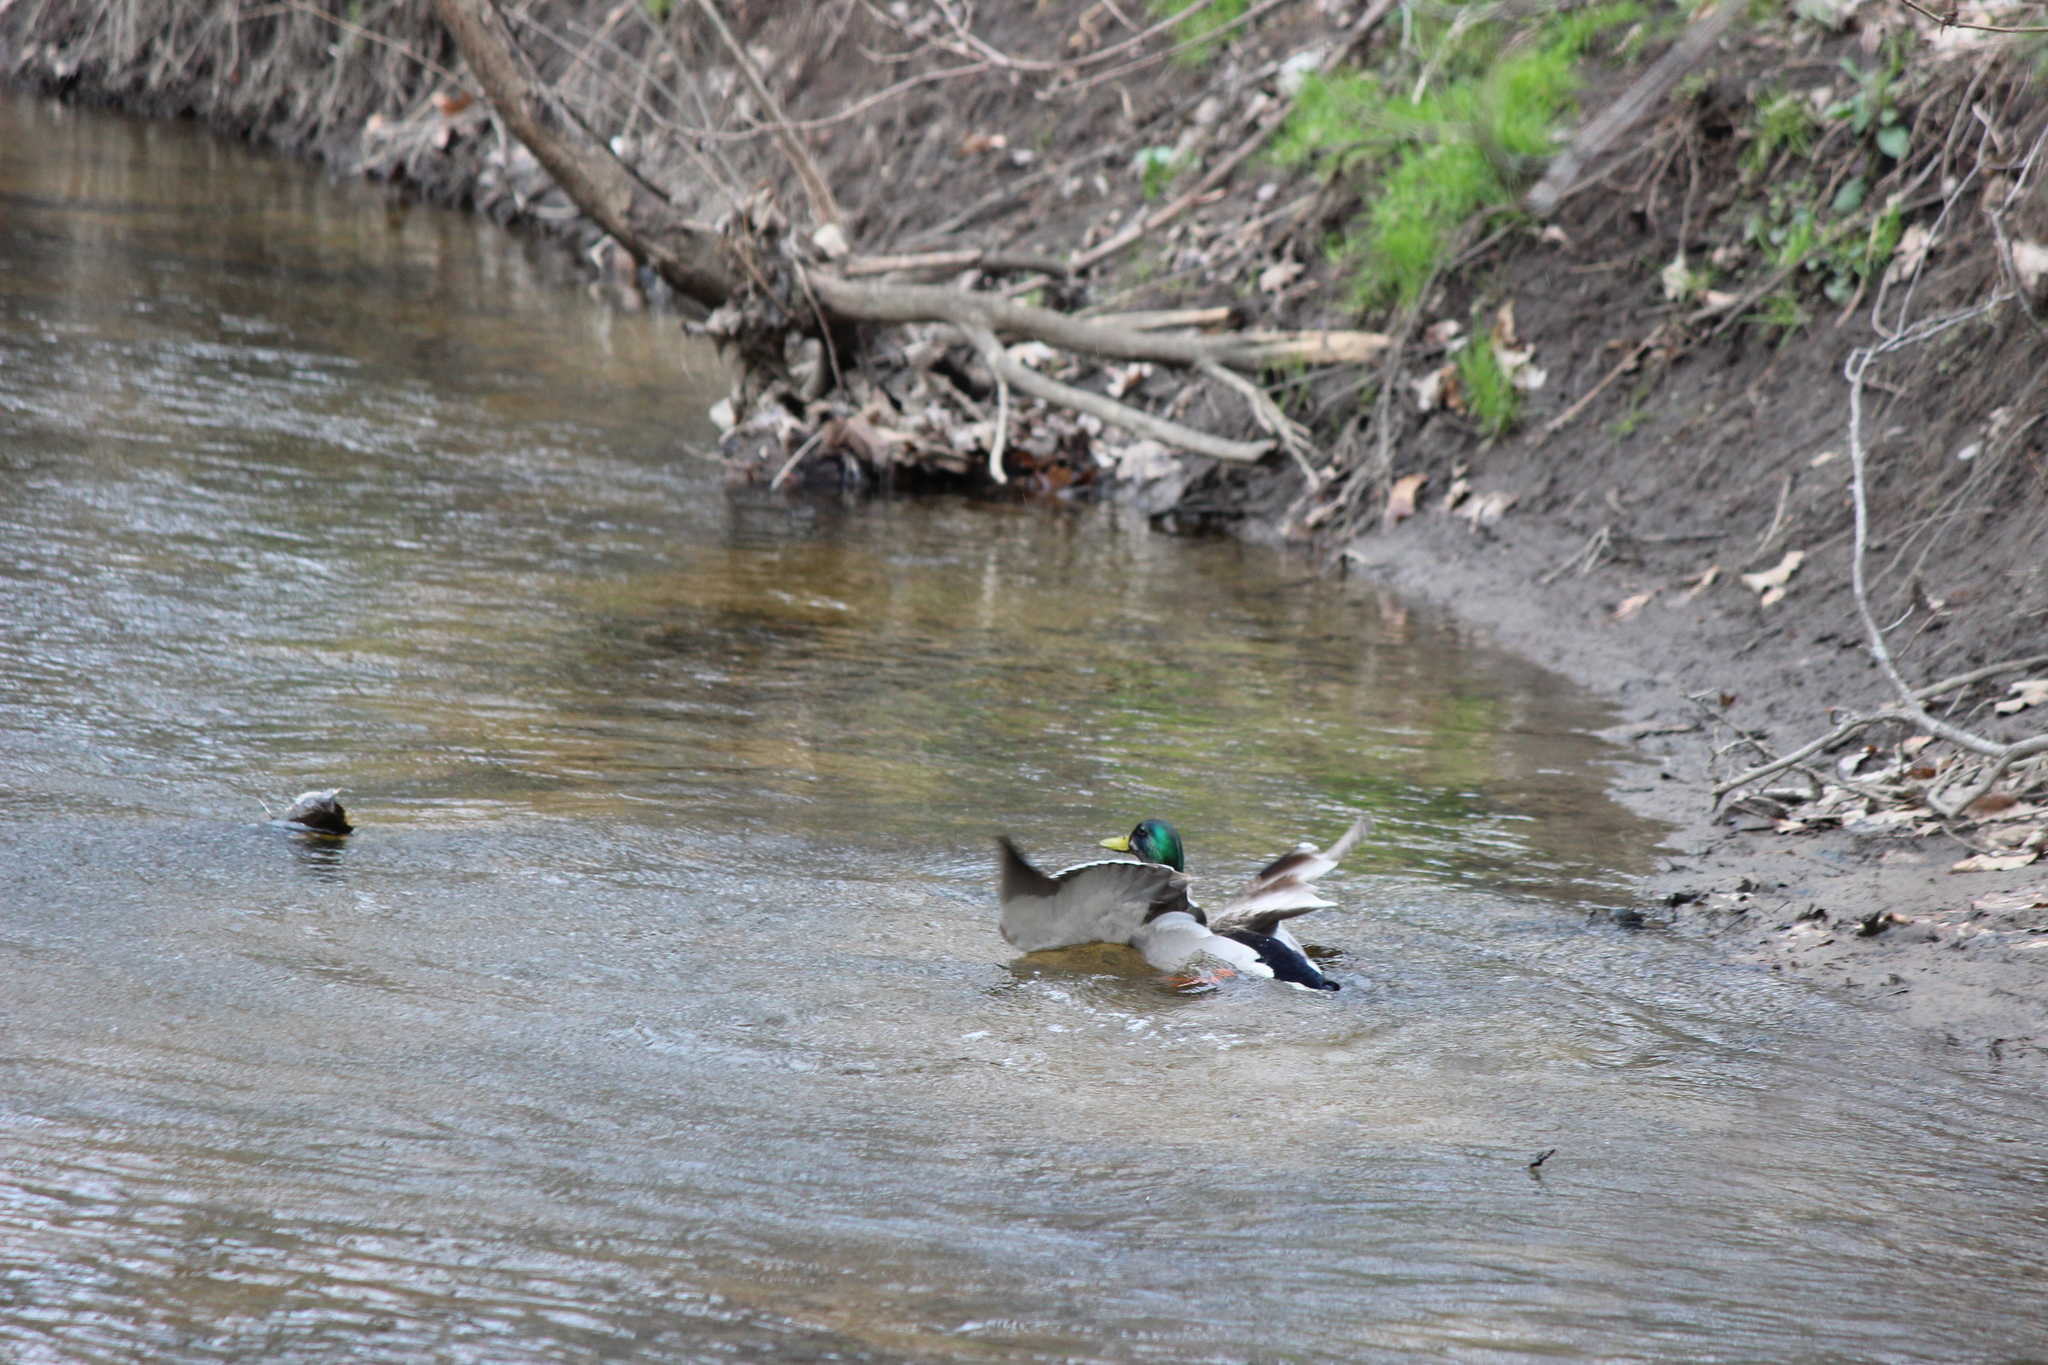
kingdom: Animalia
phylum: Chordata
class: Aves
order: Anseriformes
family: Anatidae
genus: Anas
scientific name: Anas platyrhynchos
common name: Mallard
